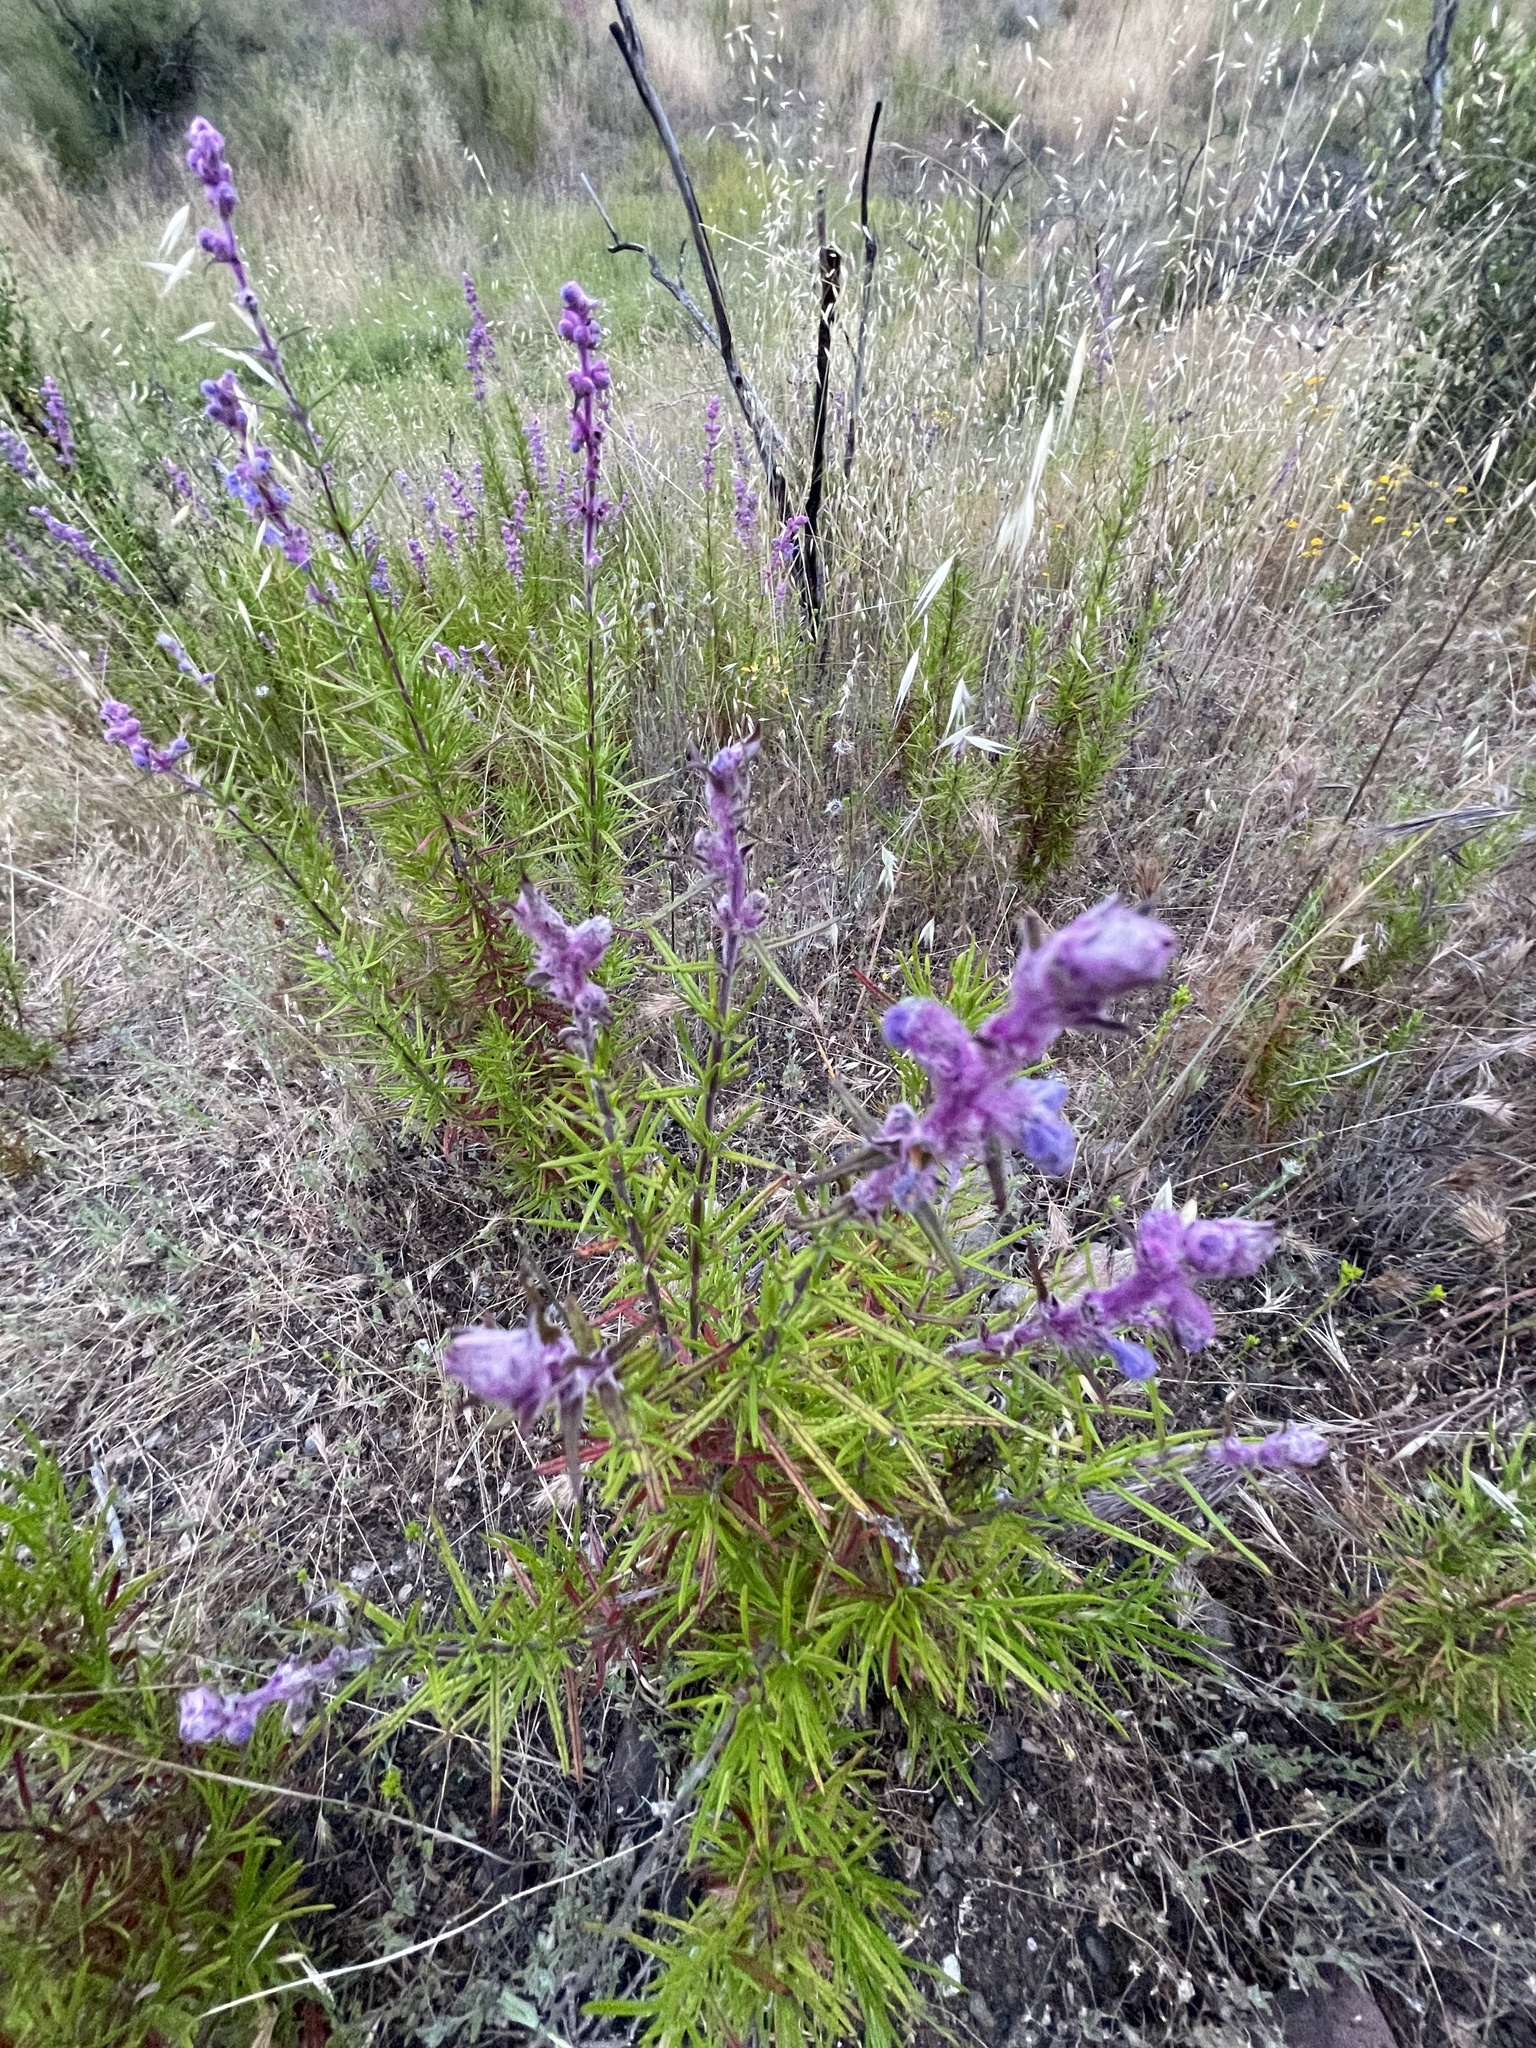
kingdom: Plantae
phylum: Tracheophyta
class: Magnoliopsida
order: Lamiales
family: Lamiaceae
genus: Trichostema
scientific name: Trichostema lanatum
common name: Woolly bluecurls
